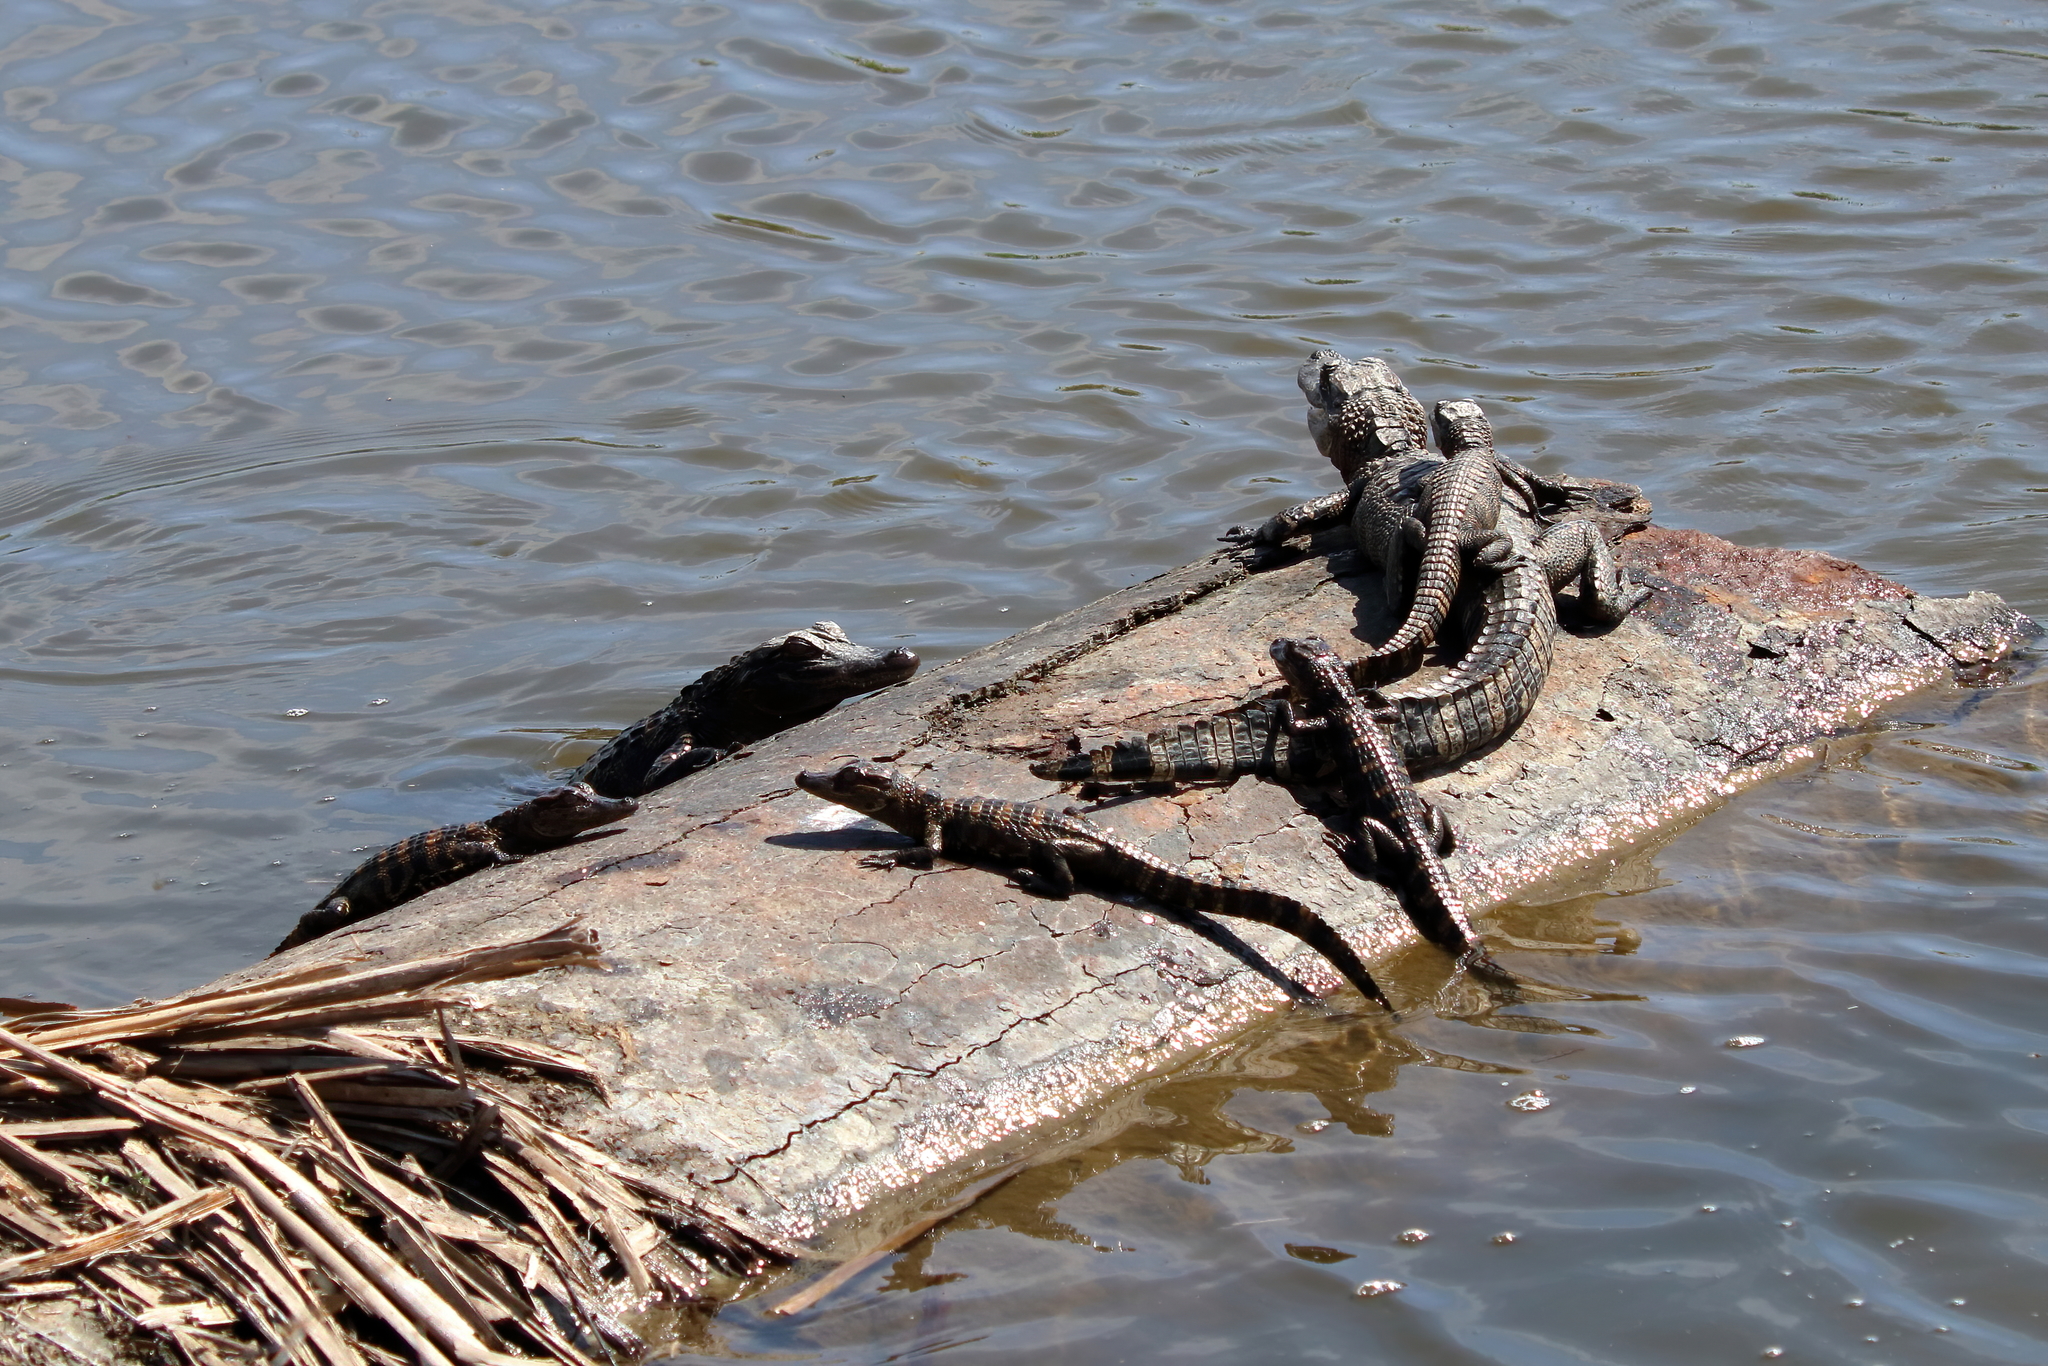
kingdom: Animalia
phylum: Chordata
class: Crocodylia
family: Alligatoridae
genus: Alligator
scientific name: Alligator mississippiensis
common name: American alligator
